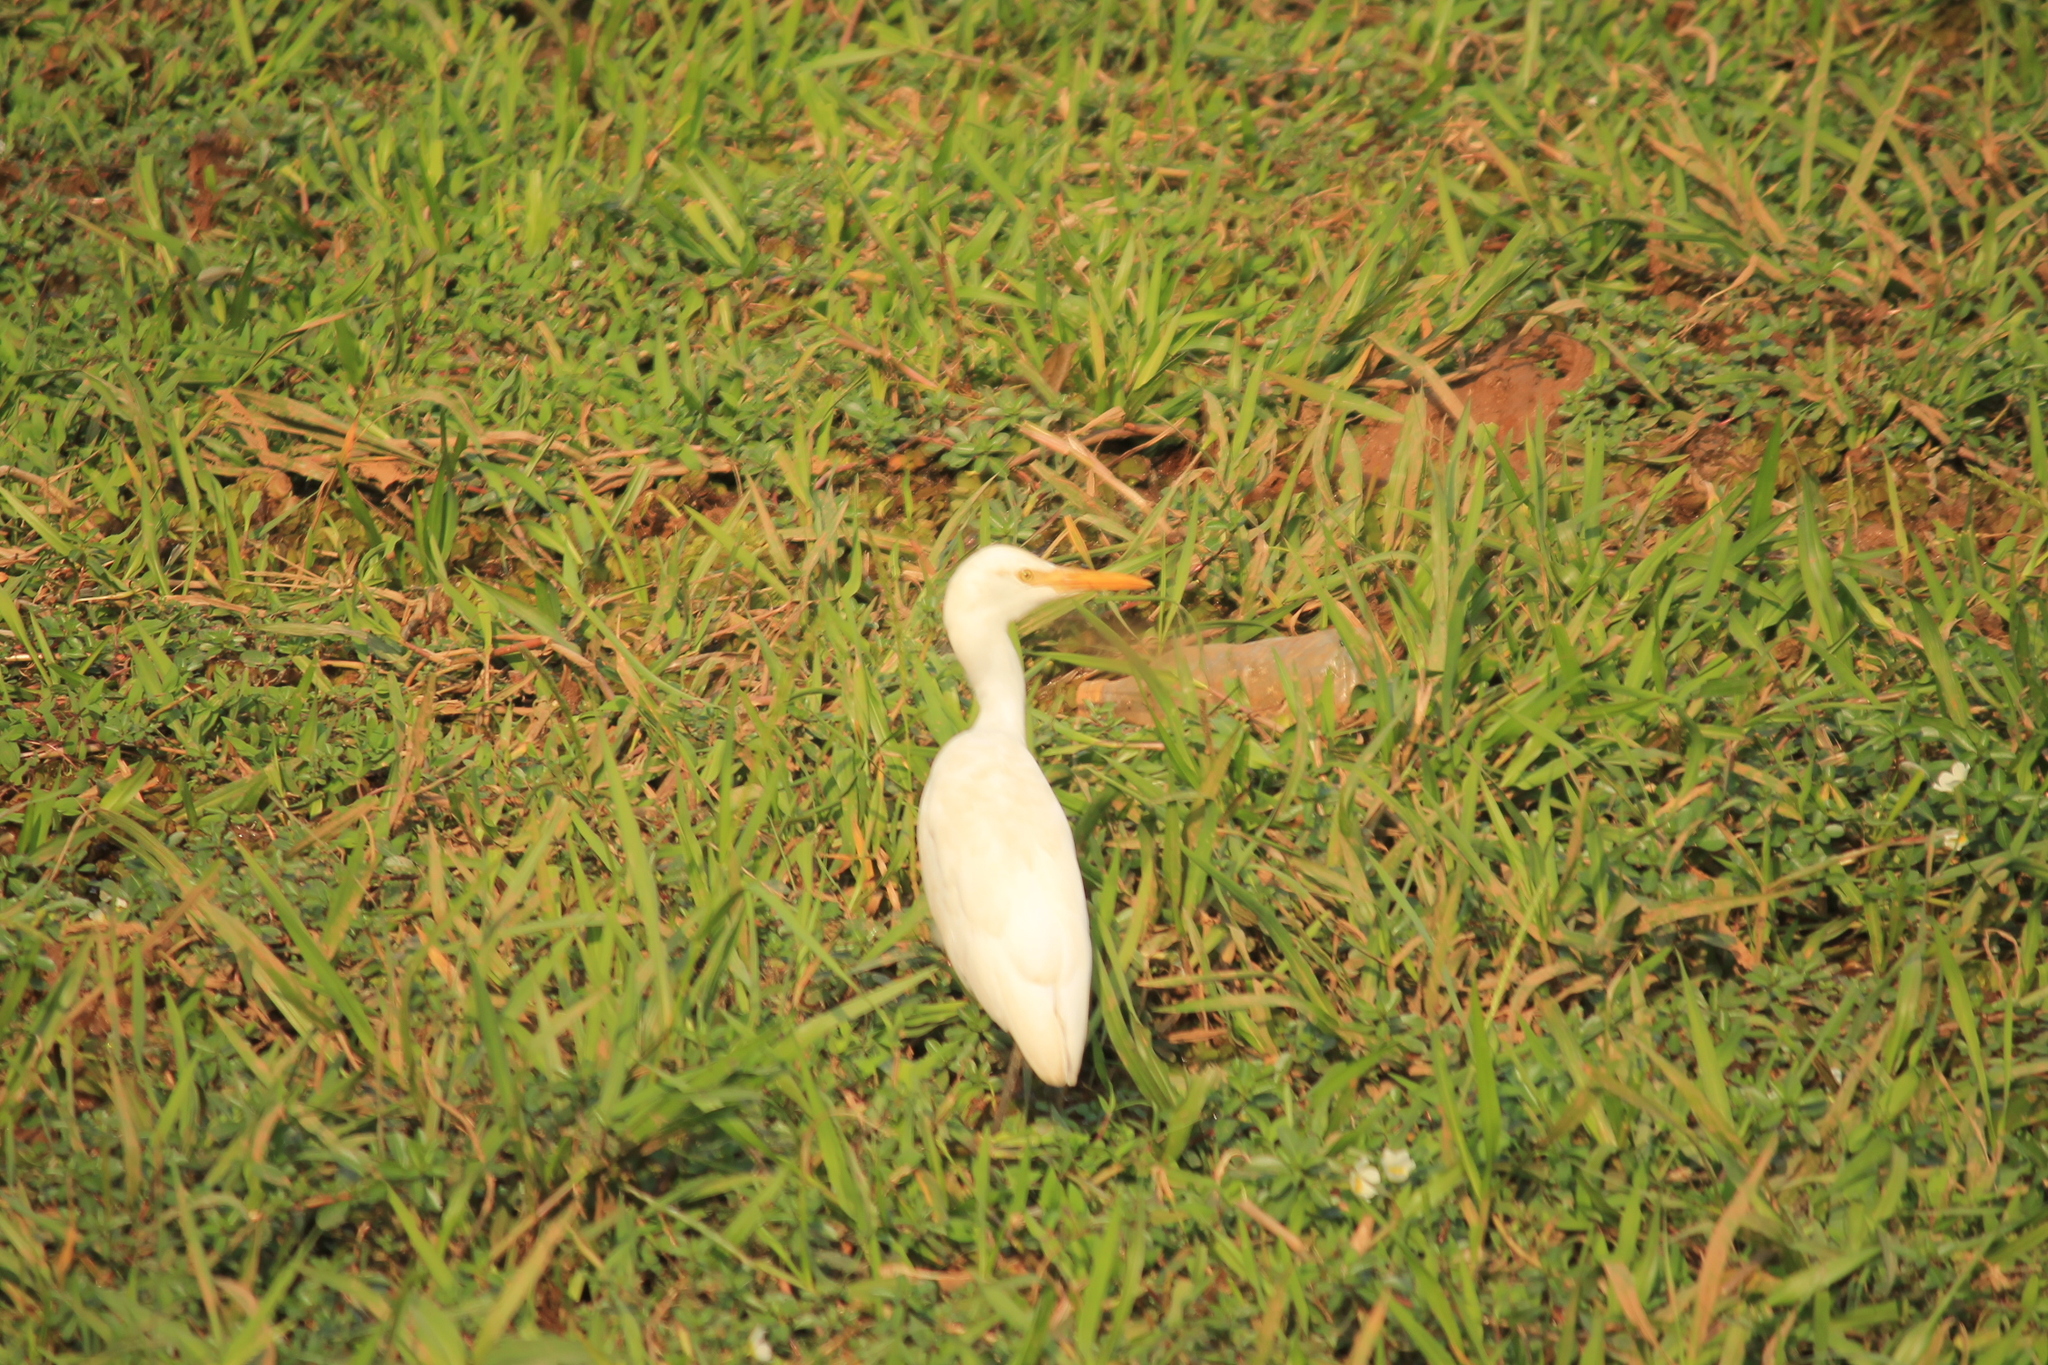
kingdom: Animalia
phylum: Chordata
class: Aves
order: Pelecaniformes
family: Ardeidae
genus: Bubulcus
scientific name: Bubulcus coromandus
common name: Eastern cattle egret
